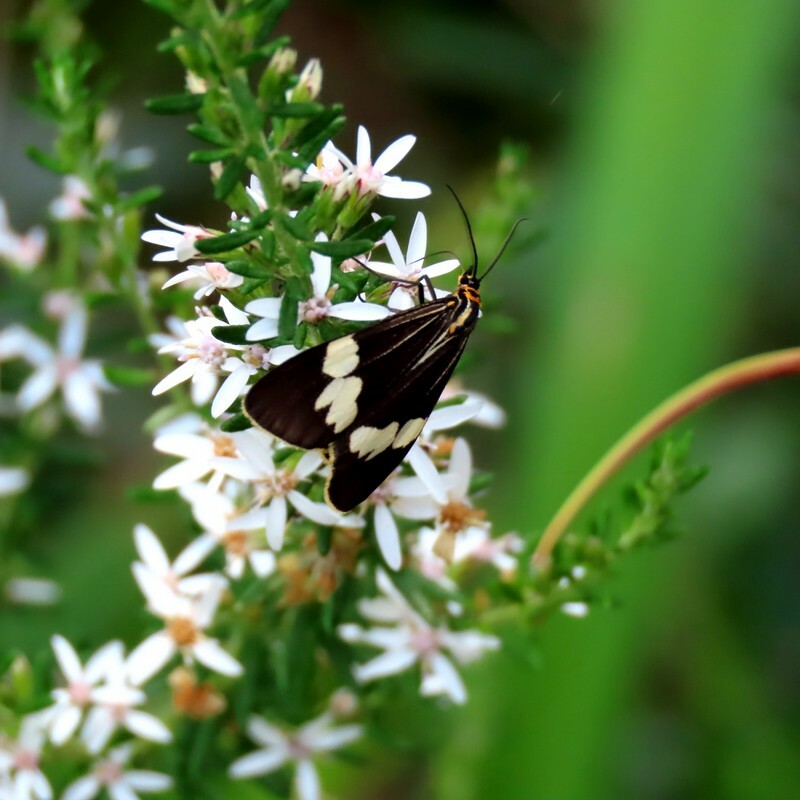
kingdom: Animalia
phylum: Arthropoda
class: Insecta
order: Lepidoptera
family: Erebidae
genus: Nyctemera
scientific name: Nyctemera amicus
